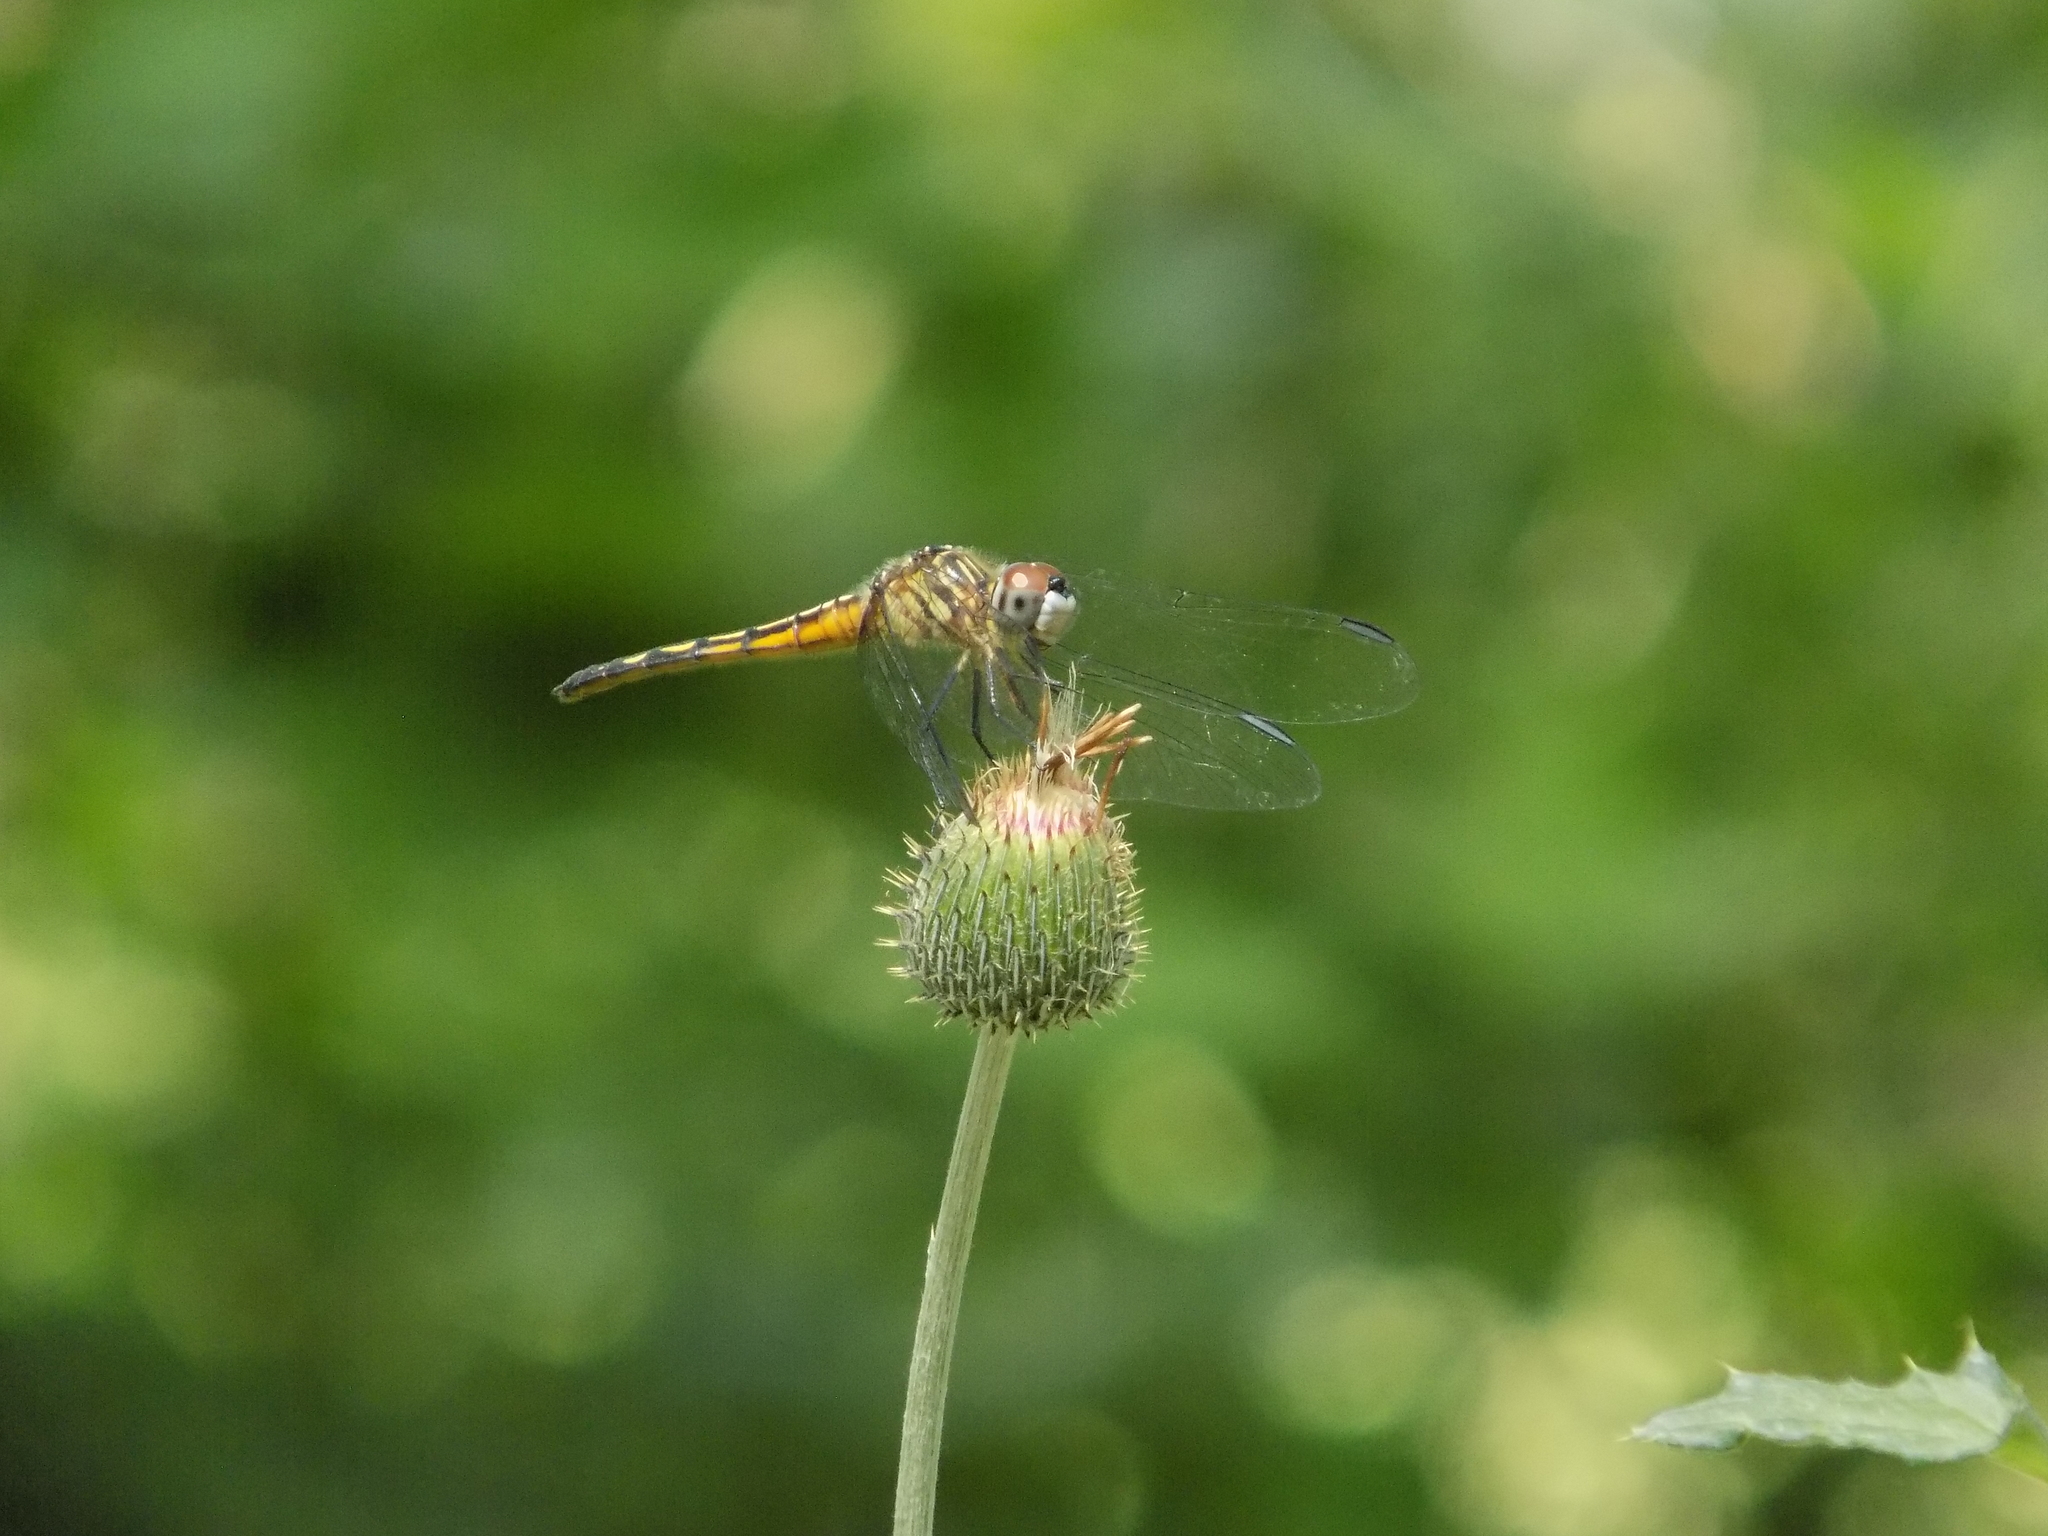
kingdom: Animalia
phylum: Arthropoda
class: Insecta
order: Odonata
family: Libellulidae
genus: Pachydiplax
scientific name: Pachydiplax longipennis
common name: Blue dasher
